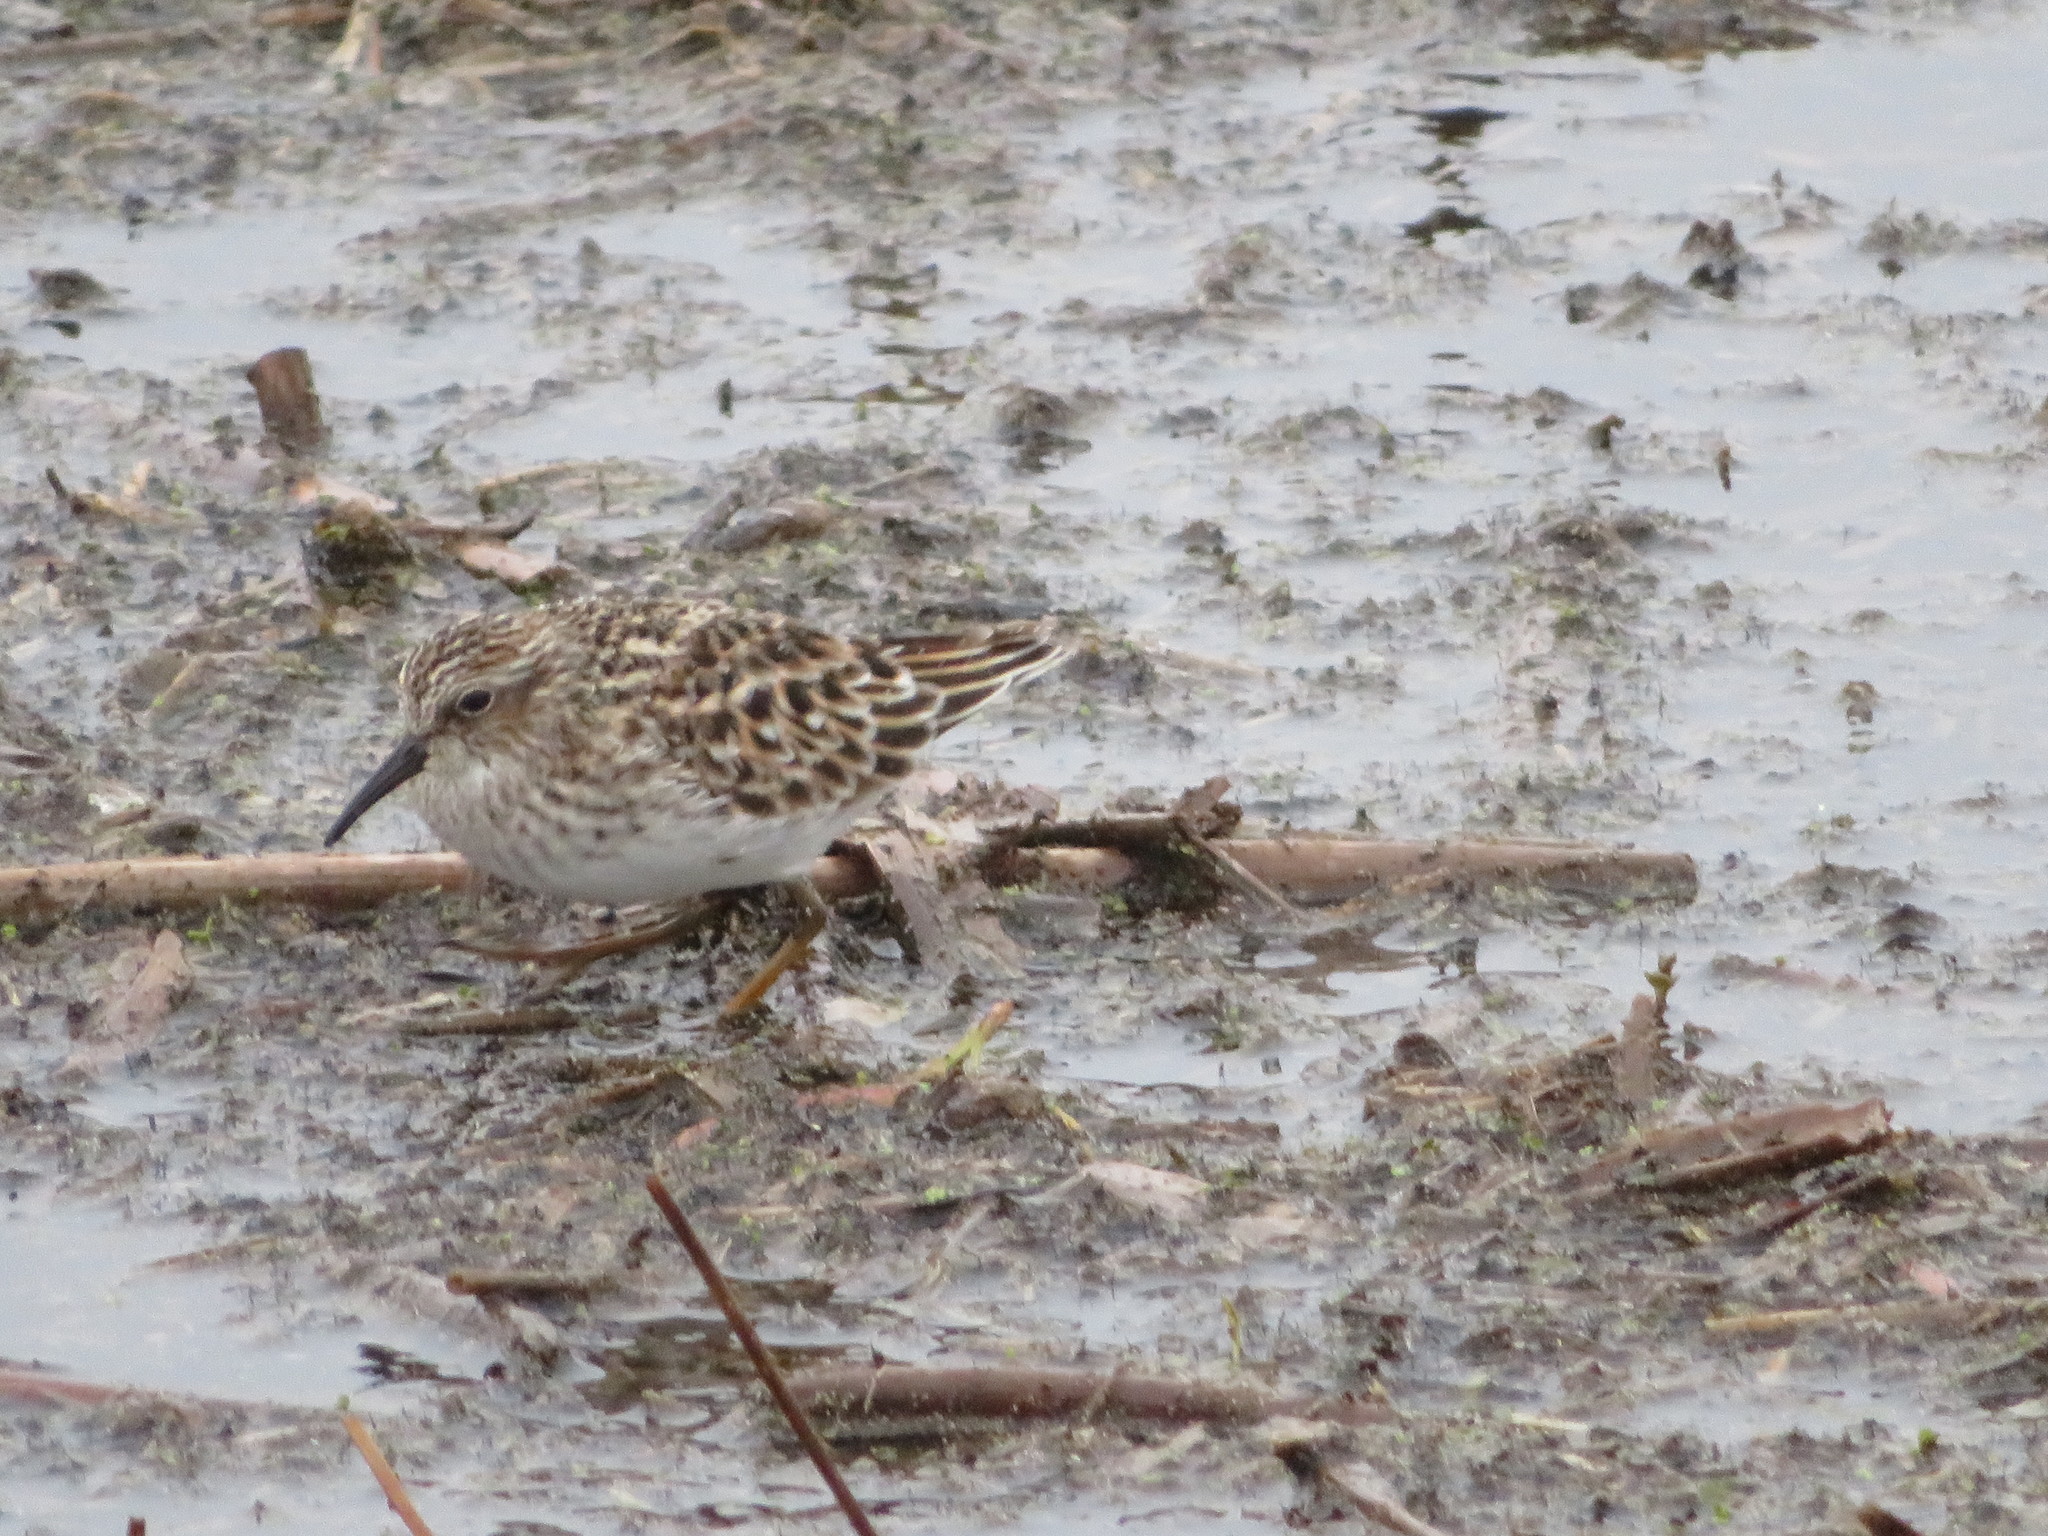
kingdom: Animalia
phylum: Chordata
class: Aves
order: Charadriiformes
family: Scolopacidae
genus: Calidris
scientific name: Calidris minutilla
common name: Least sandpiper
